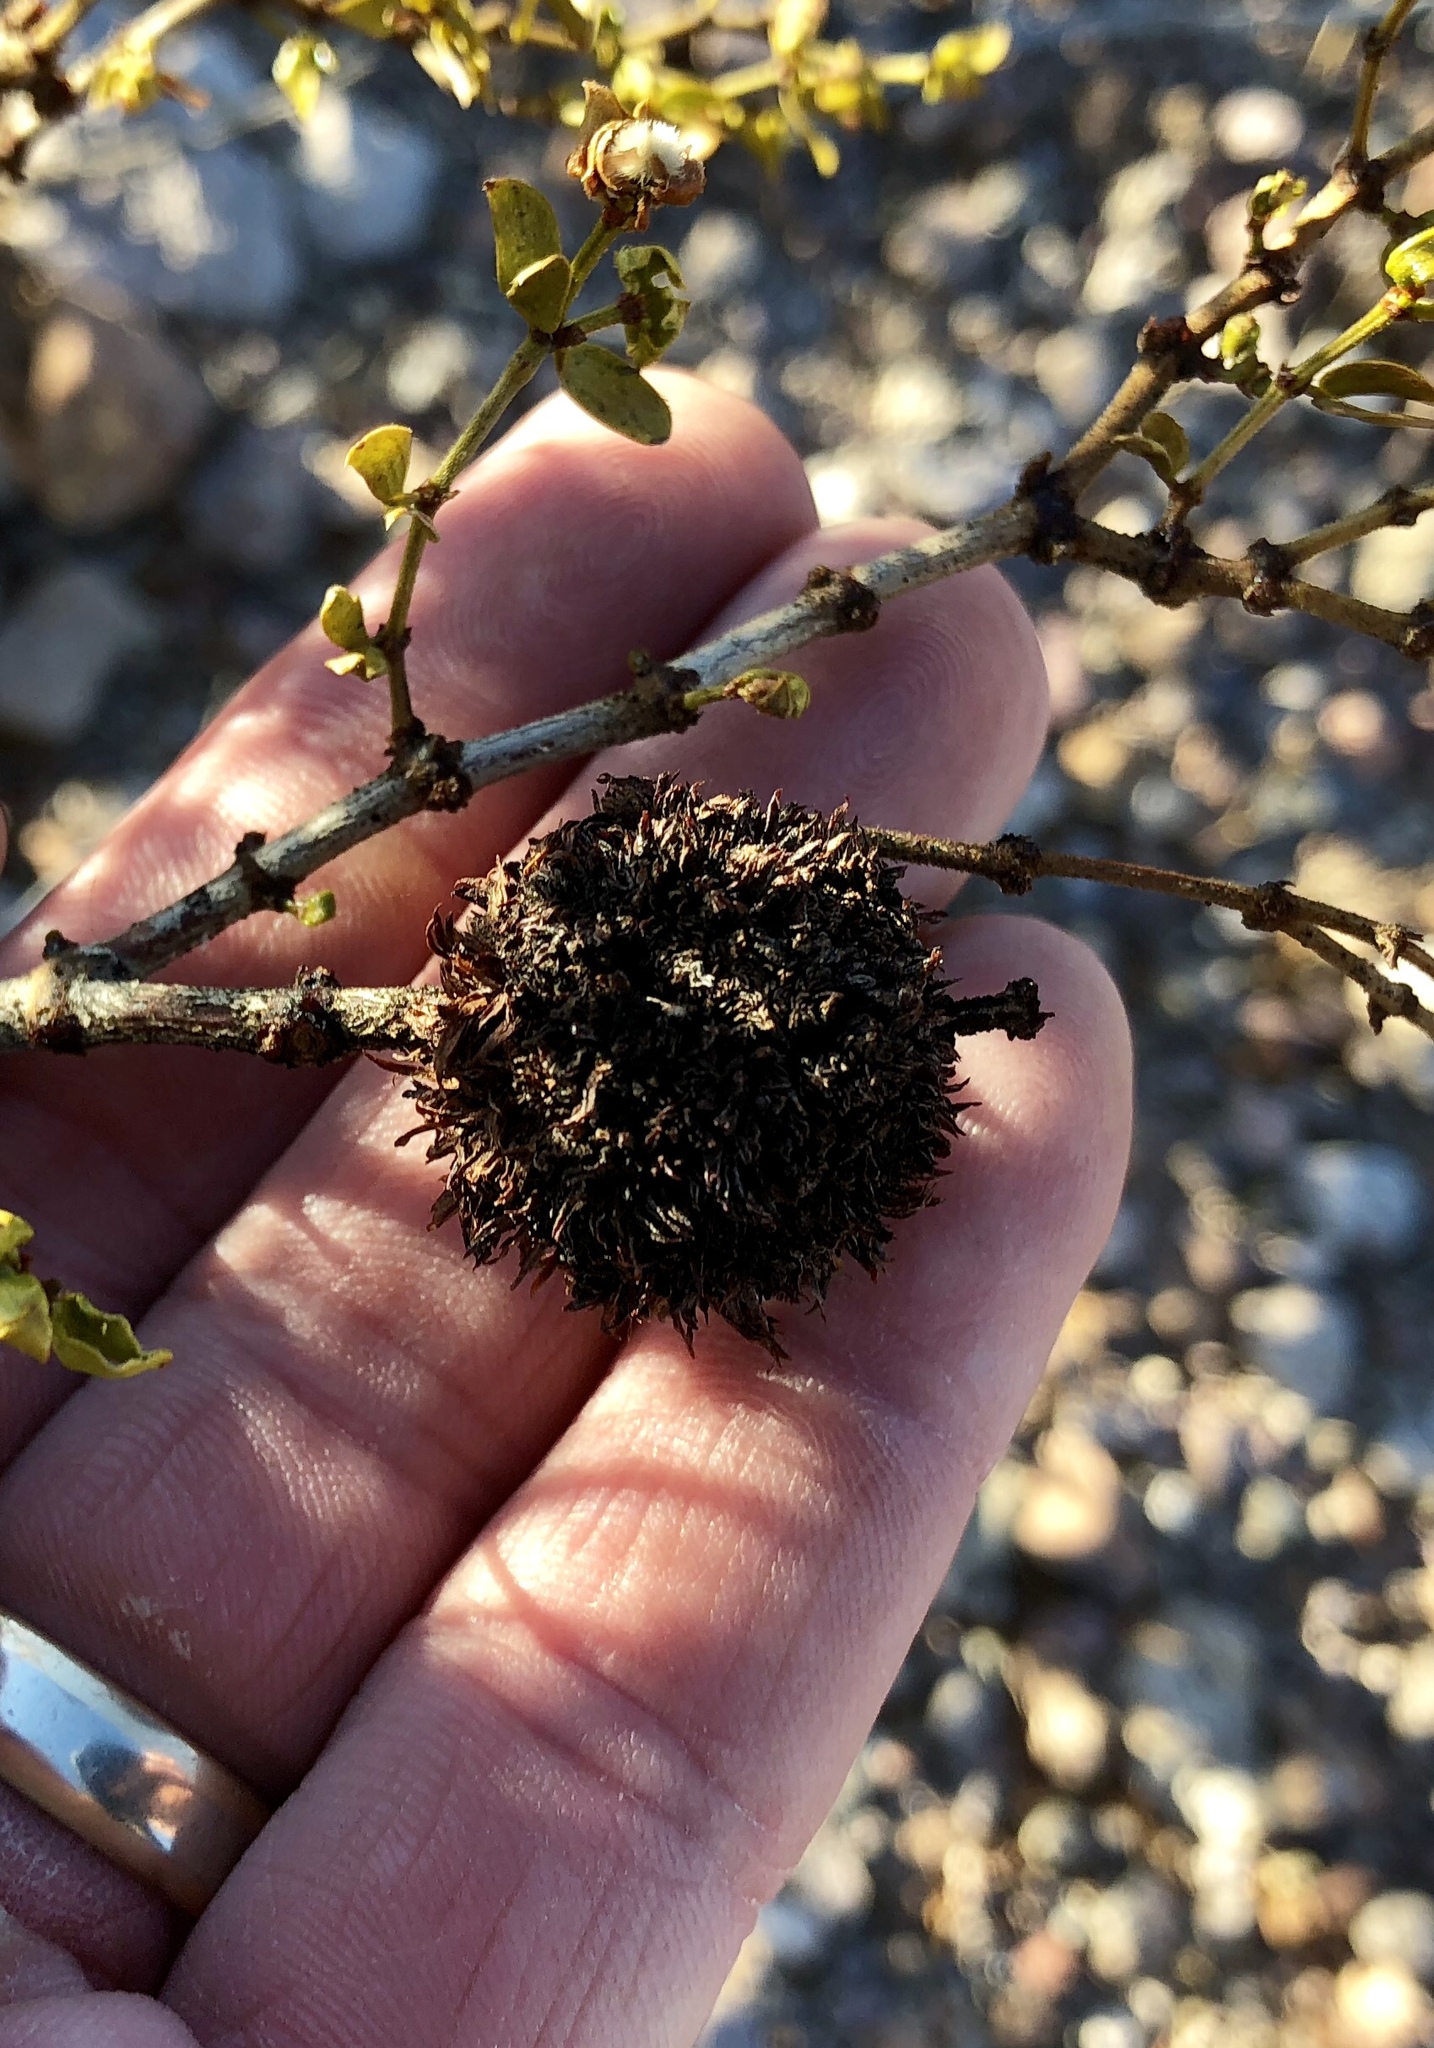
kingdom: Animalia
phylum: Arthropoda
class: Insecta
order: Diptera
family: Cecidomyiidae
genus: Asphondylia
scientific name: Asphondylia auripila
